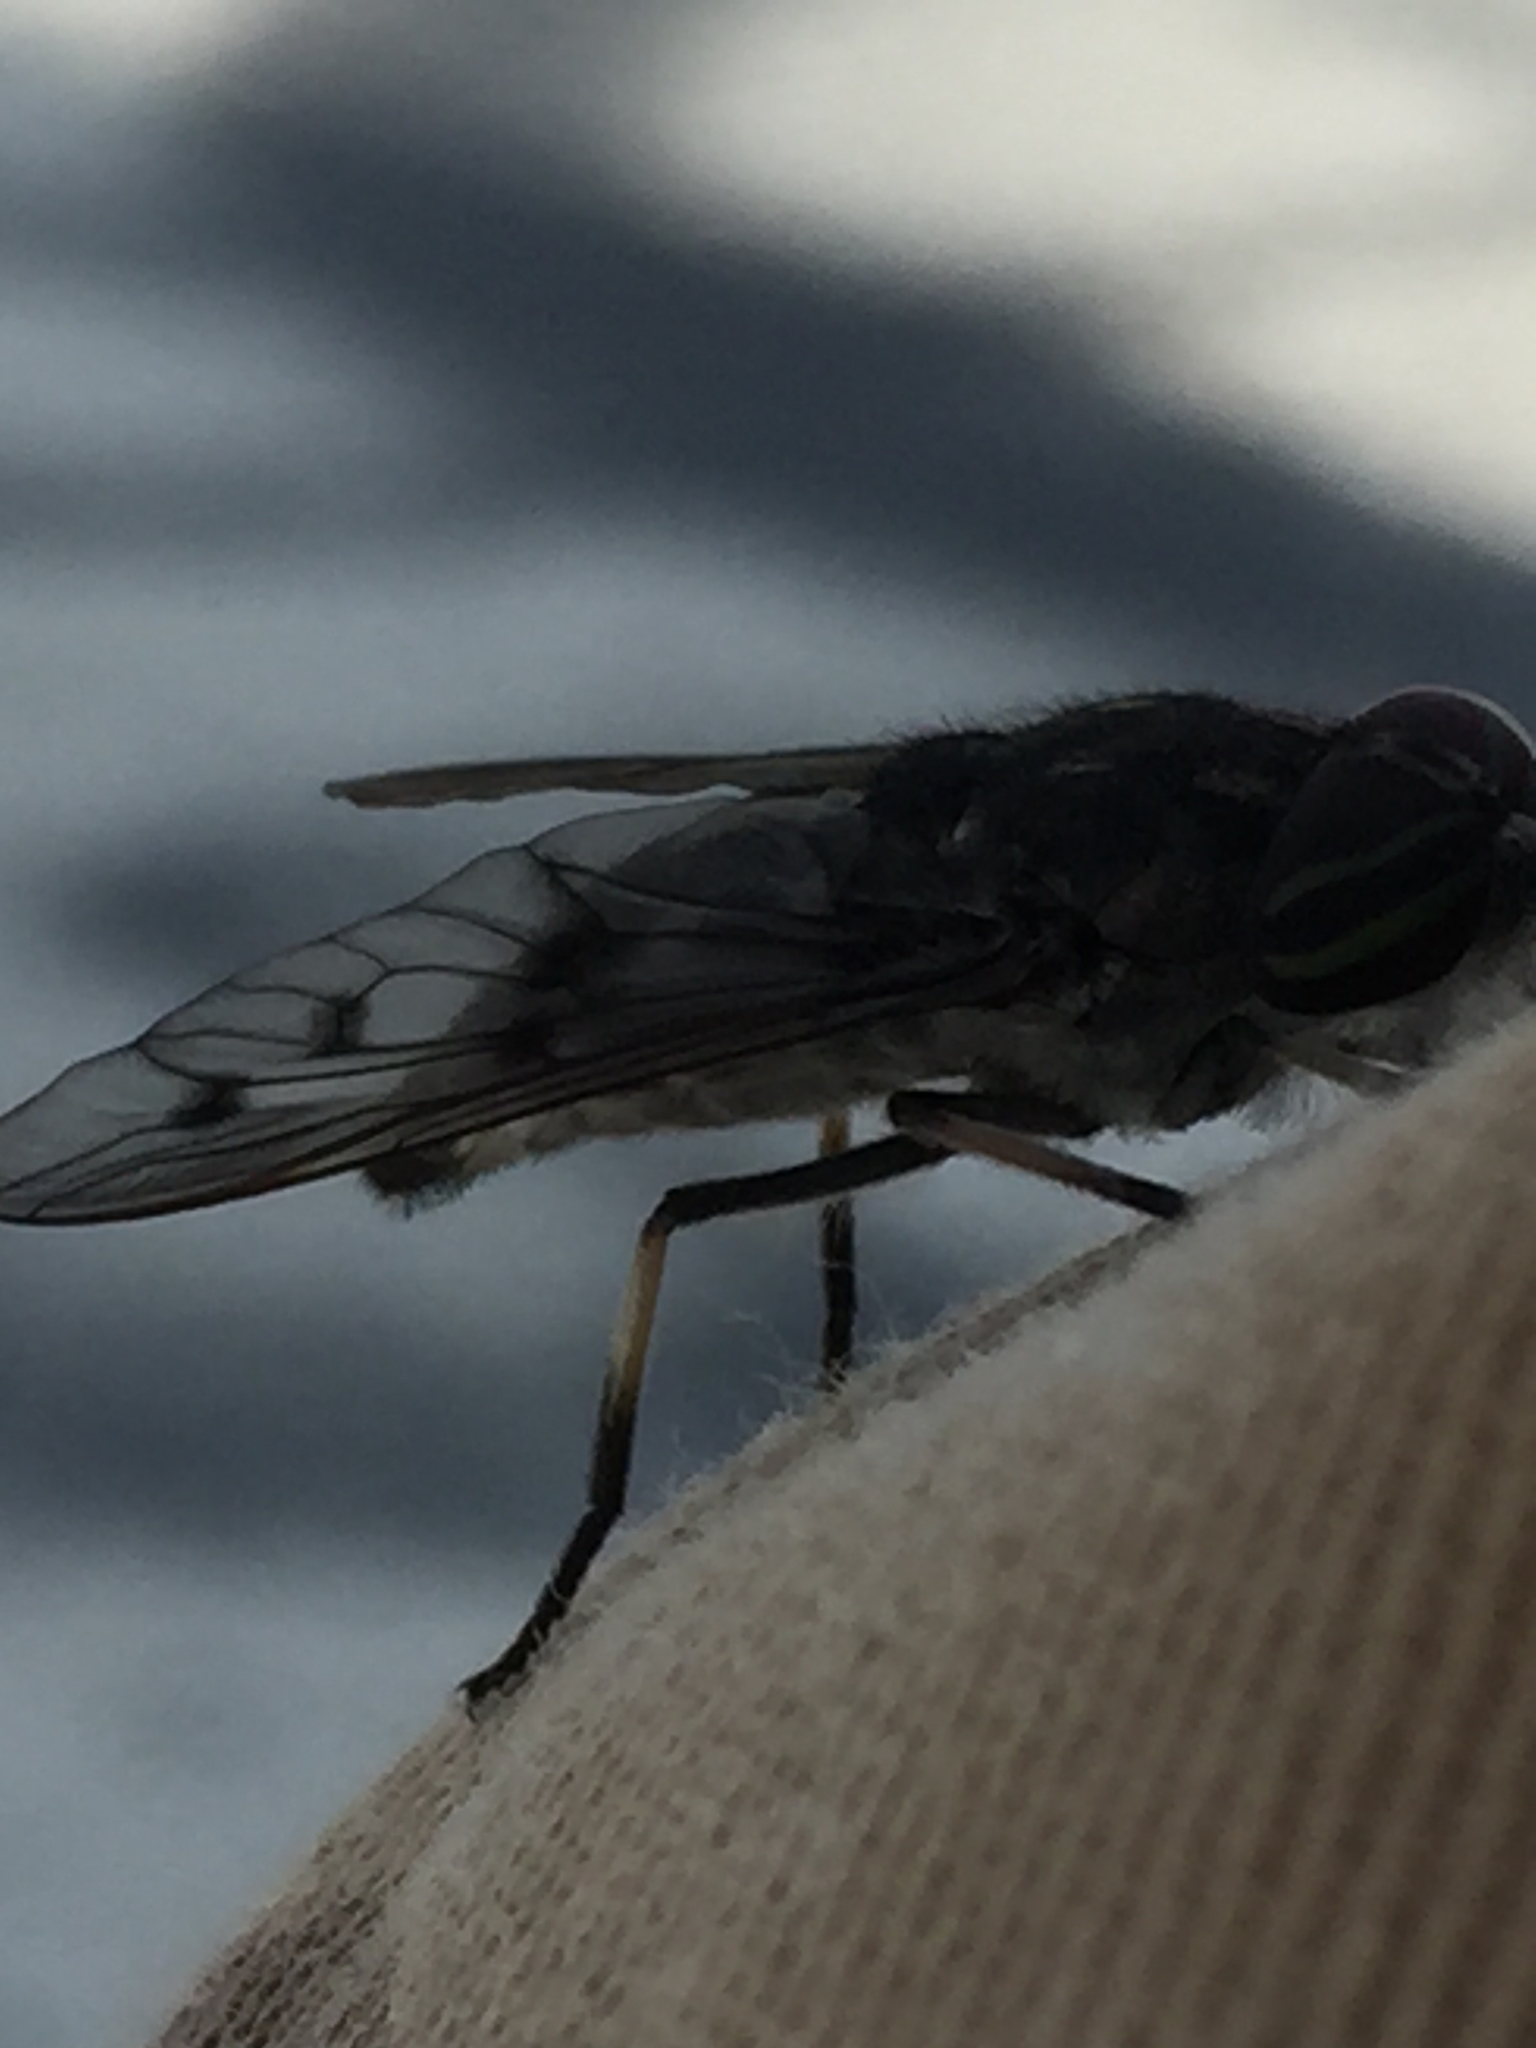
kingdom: Animalia
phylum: Arthropoda
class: Insecta
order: Diptera
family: Tabanidae
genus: Poeciloderas
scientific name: Poeciloderas quadripunctatus
